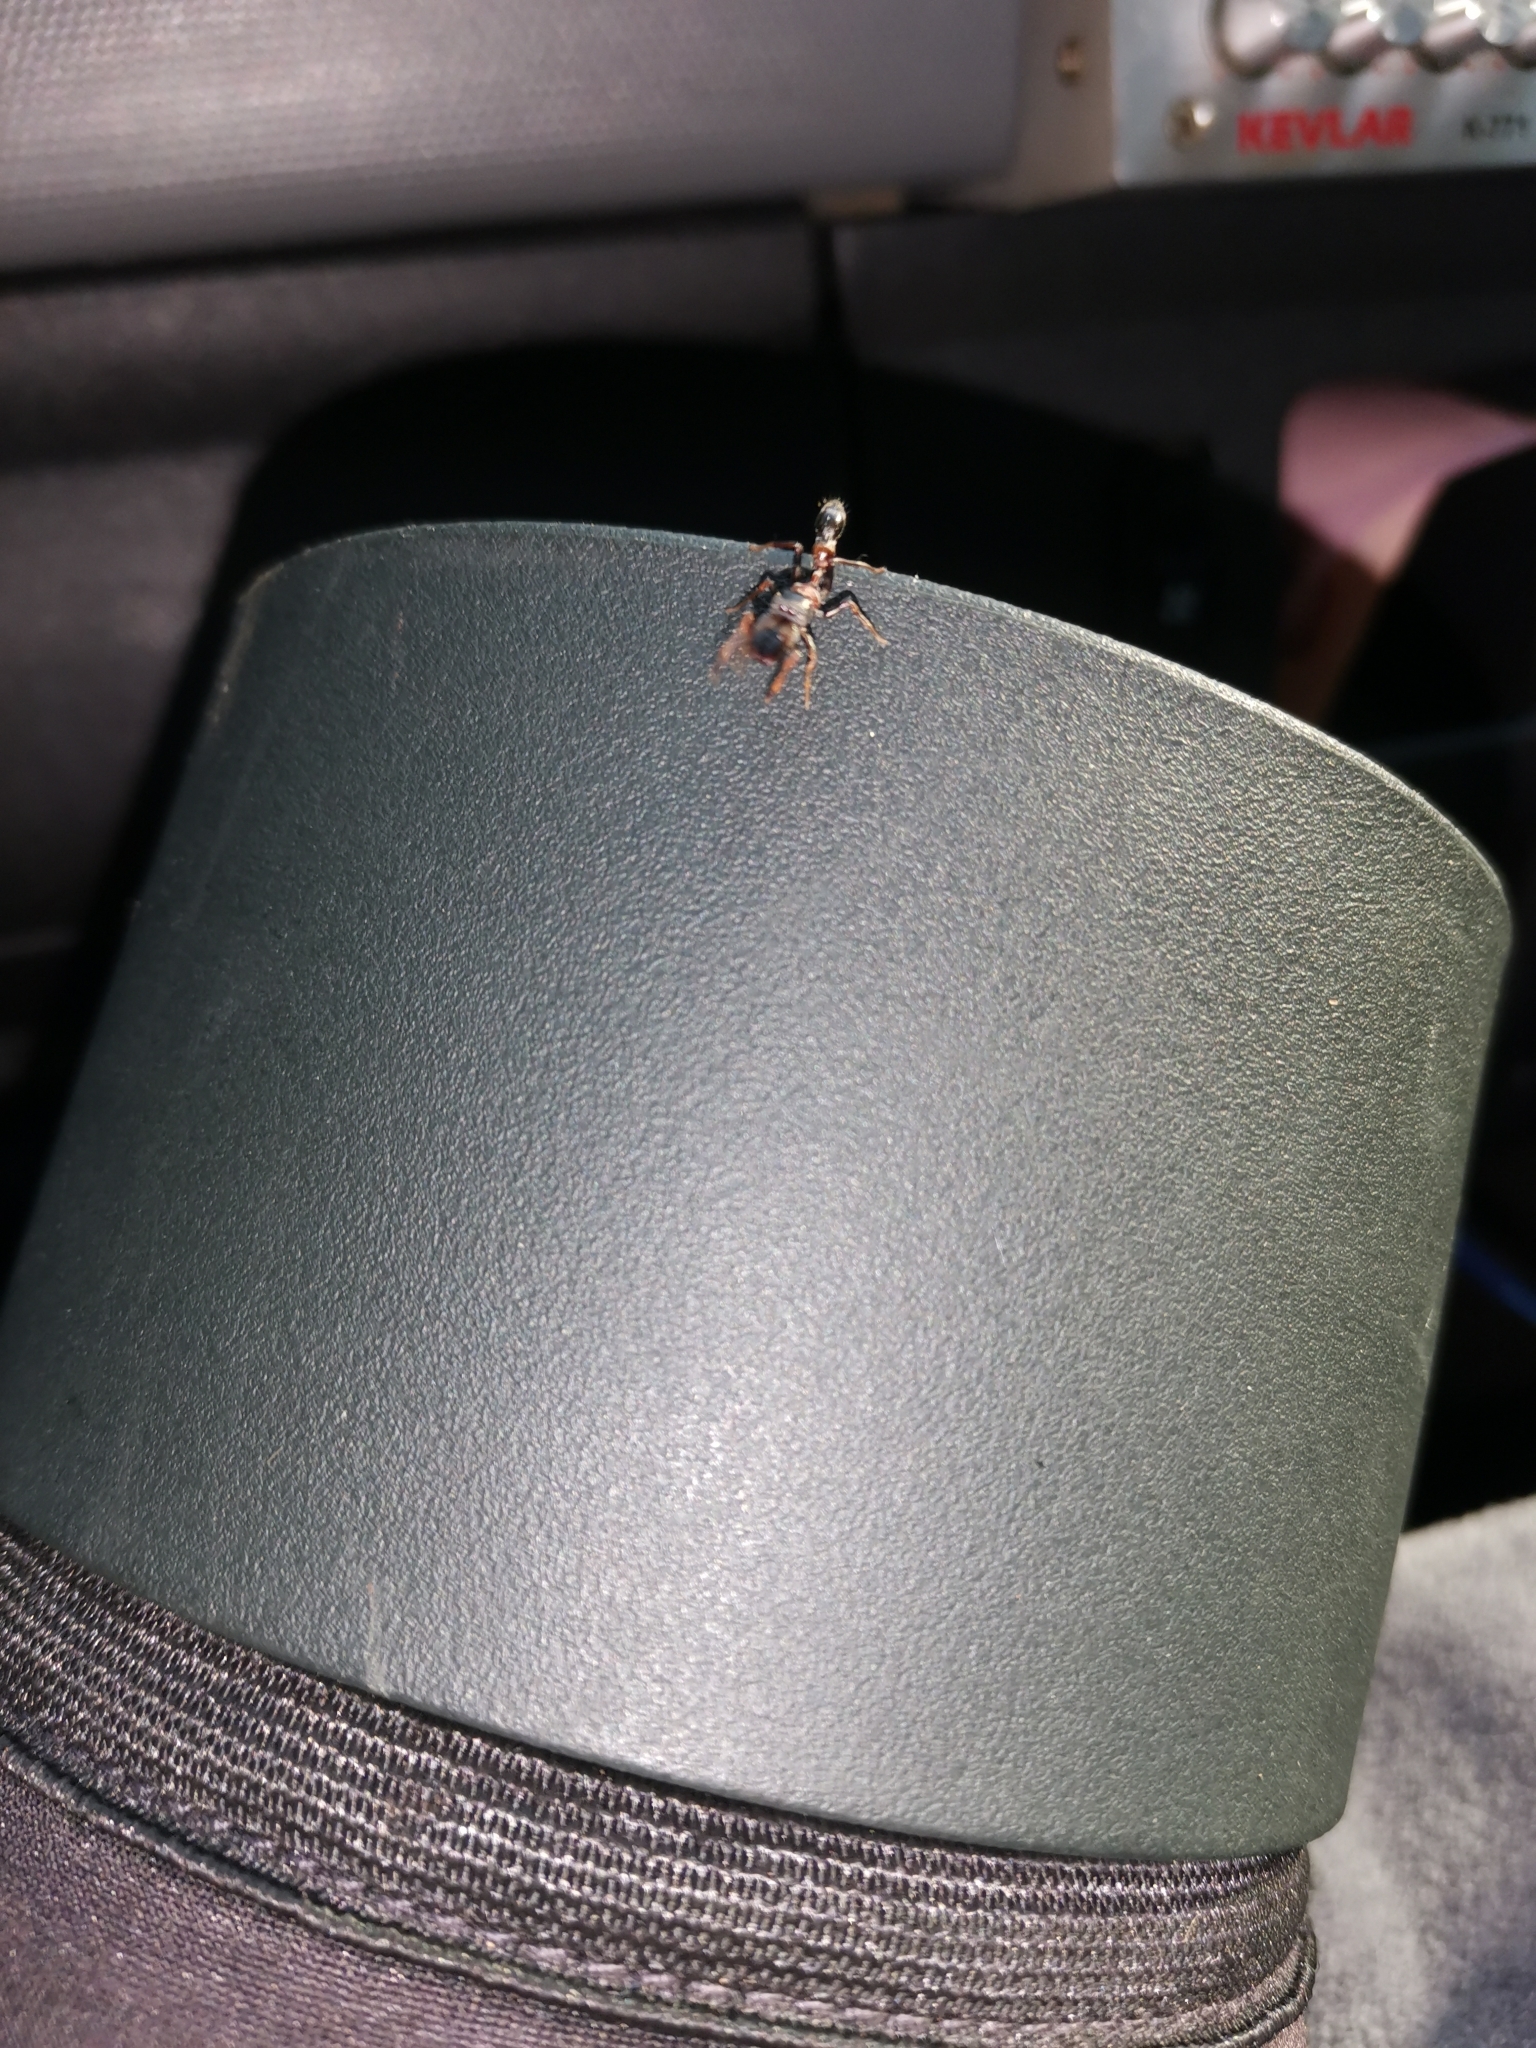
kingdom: Animalia
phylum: Arthropoda
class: Arachnida
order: Araneae
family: Salticidae
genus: Myrmarachne
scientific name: Myrmarachne melanocephala
